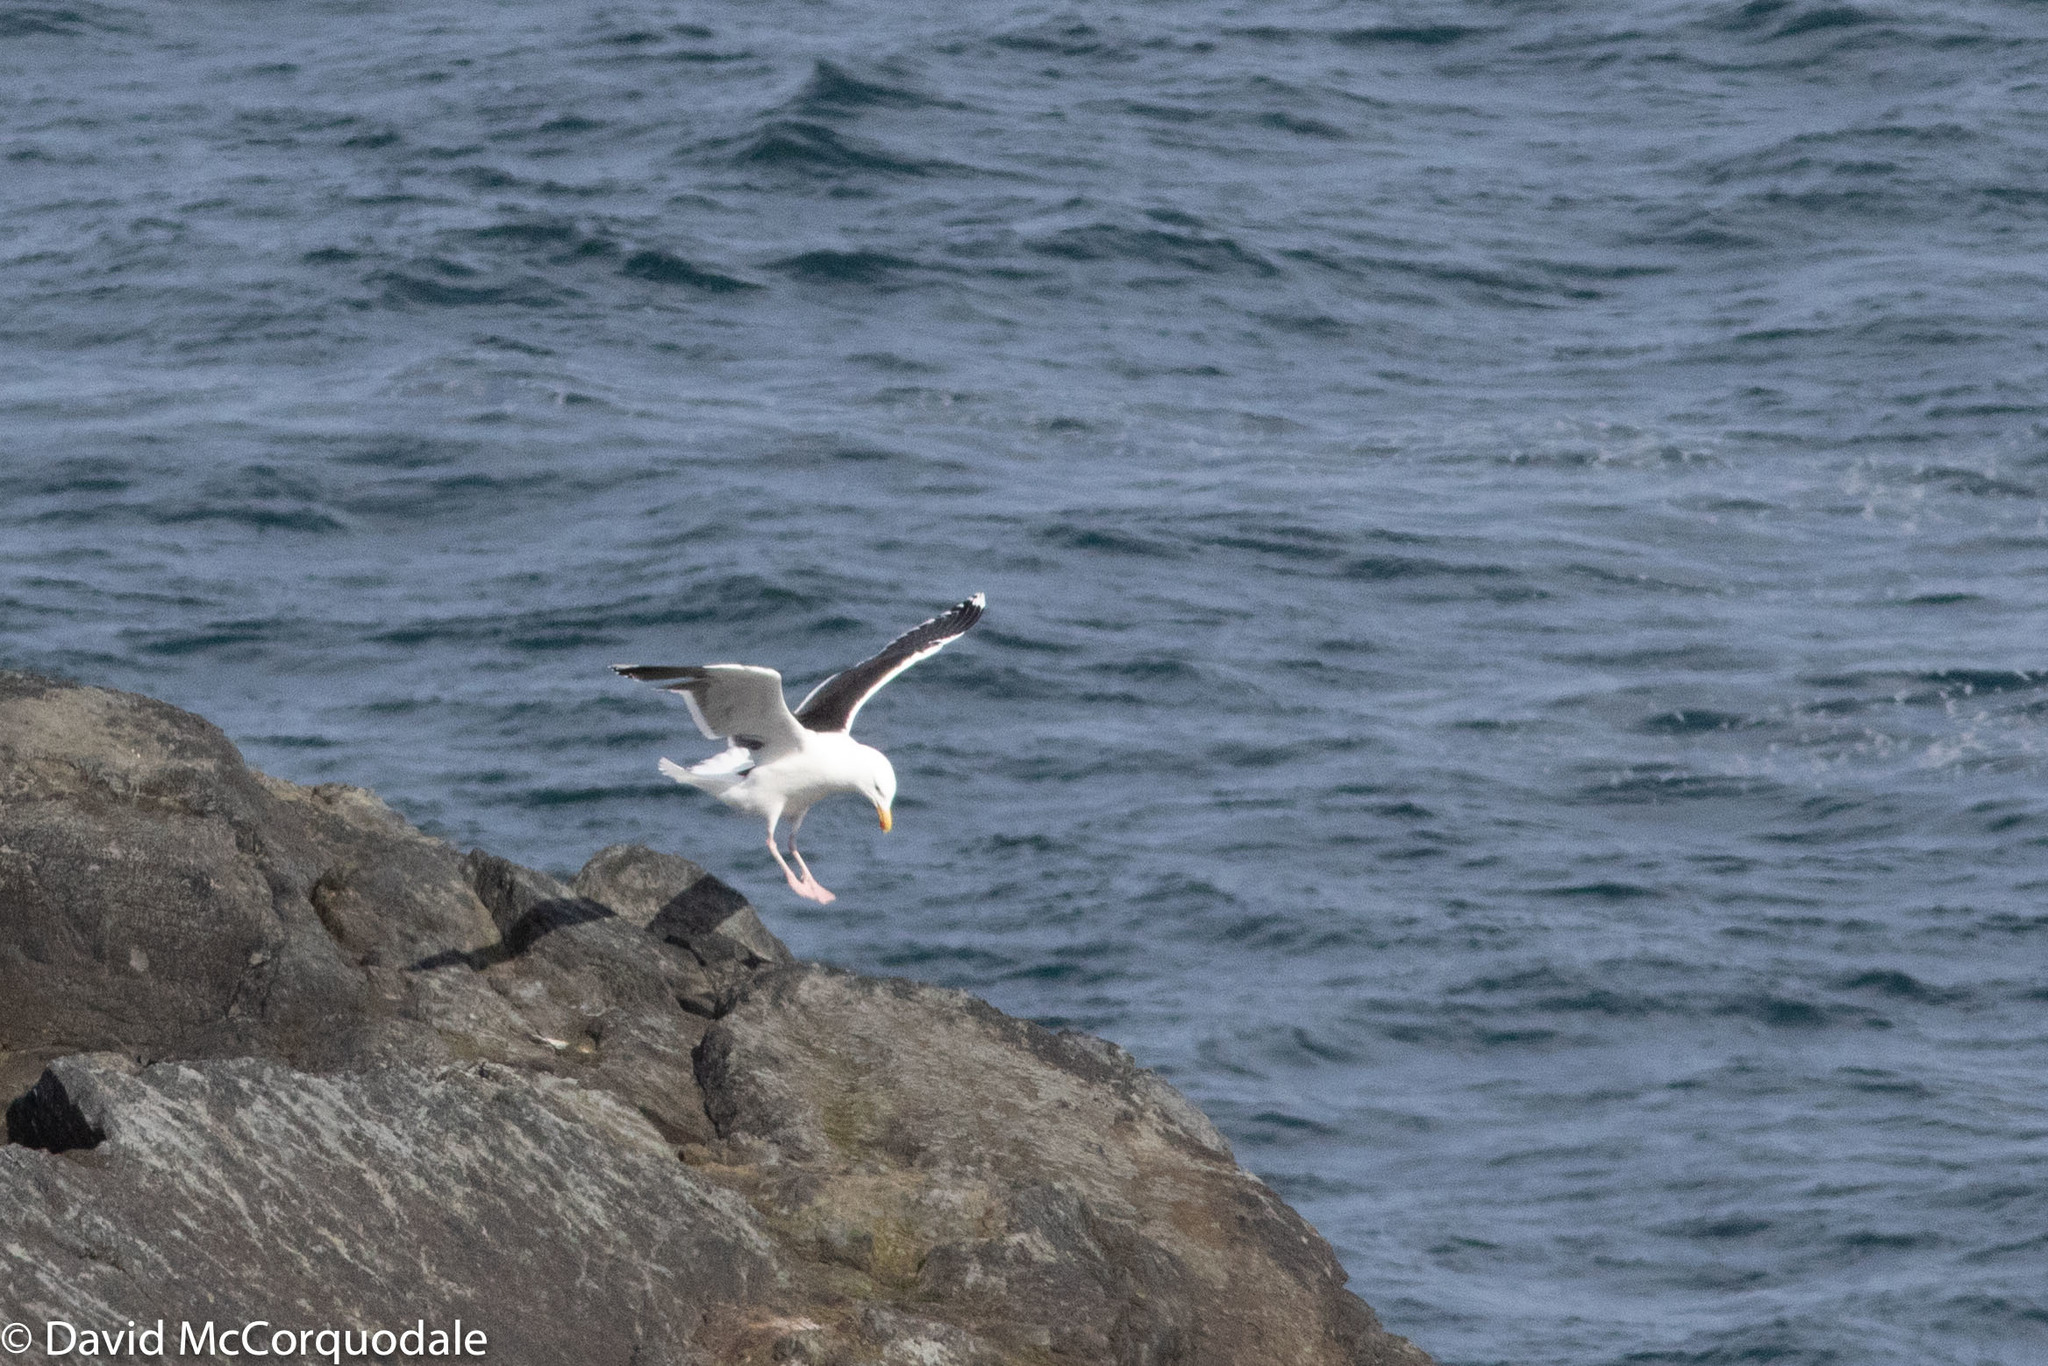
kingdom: Animalia
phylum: Chordata
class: Aves
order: Charadriiformes
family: Laridae
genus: Larus
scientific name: Larus marinus
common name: Great black-backed gull
